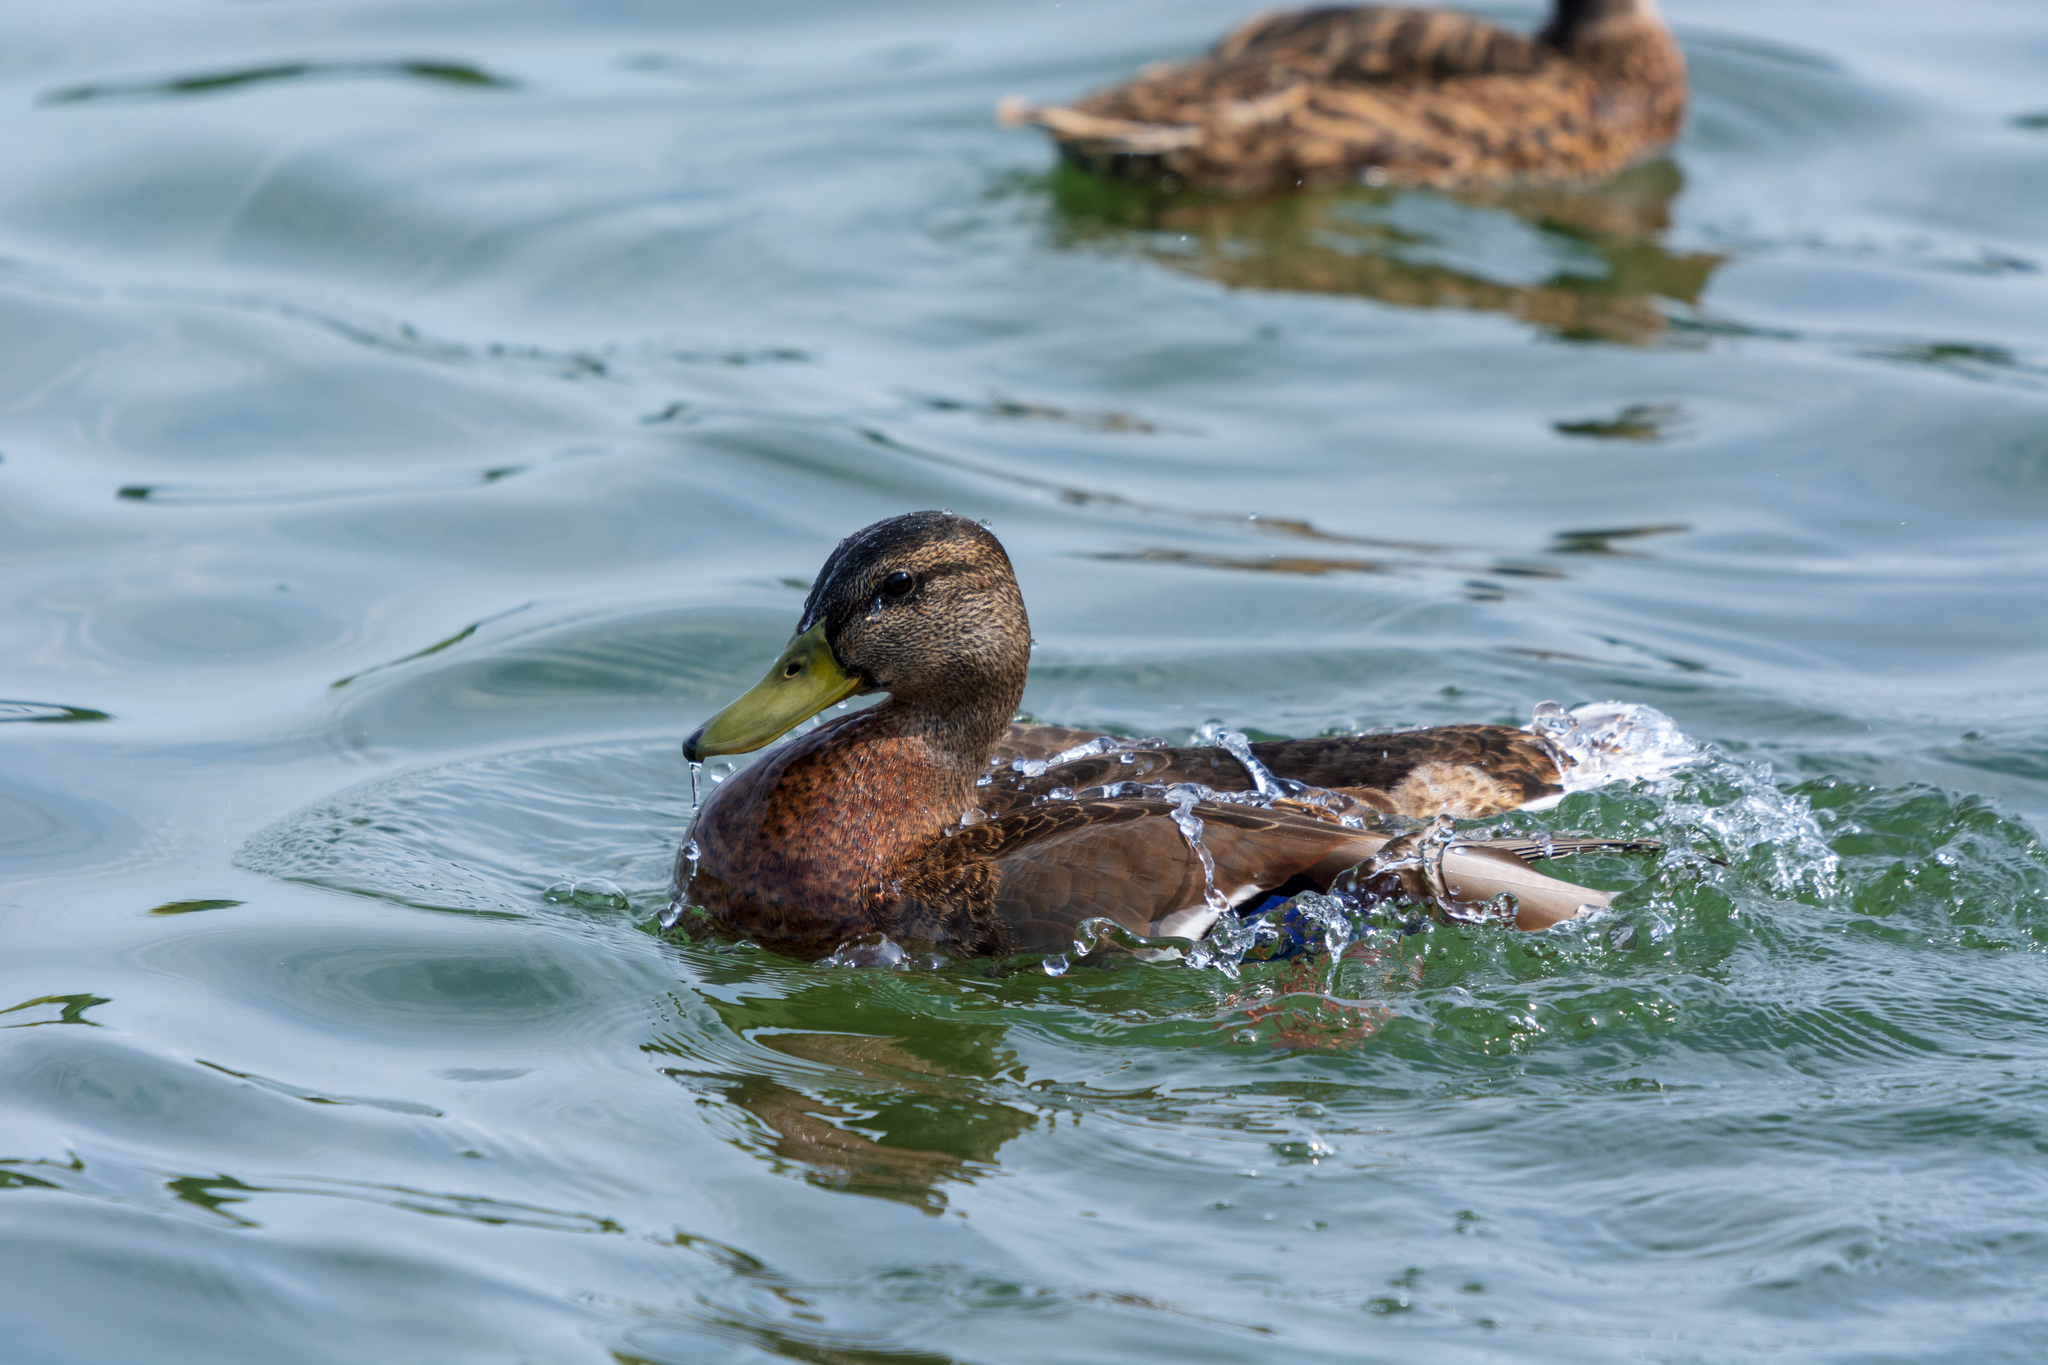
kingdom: Animalia
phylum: Chordata
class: Aves
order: Anseriformes
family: Anatidae
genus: Anas
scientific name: Anas platyrhynchos
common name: Mallard
